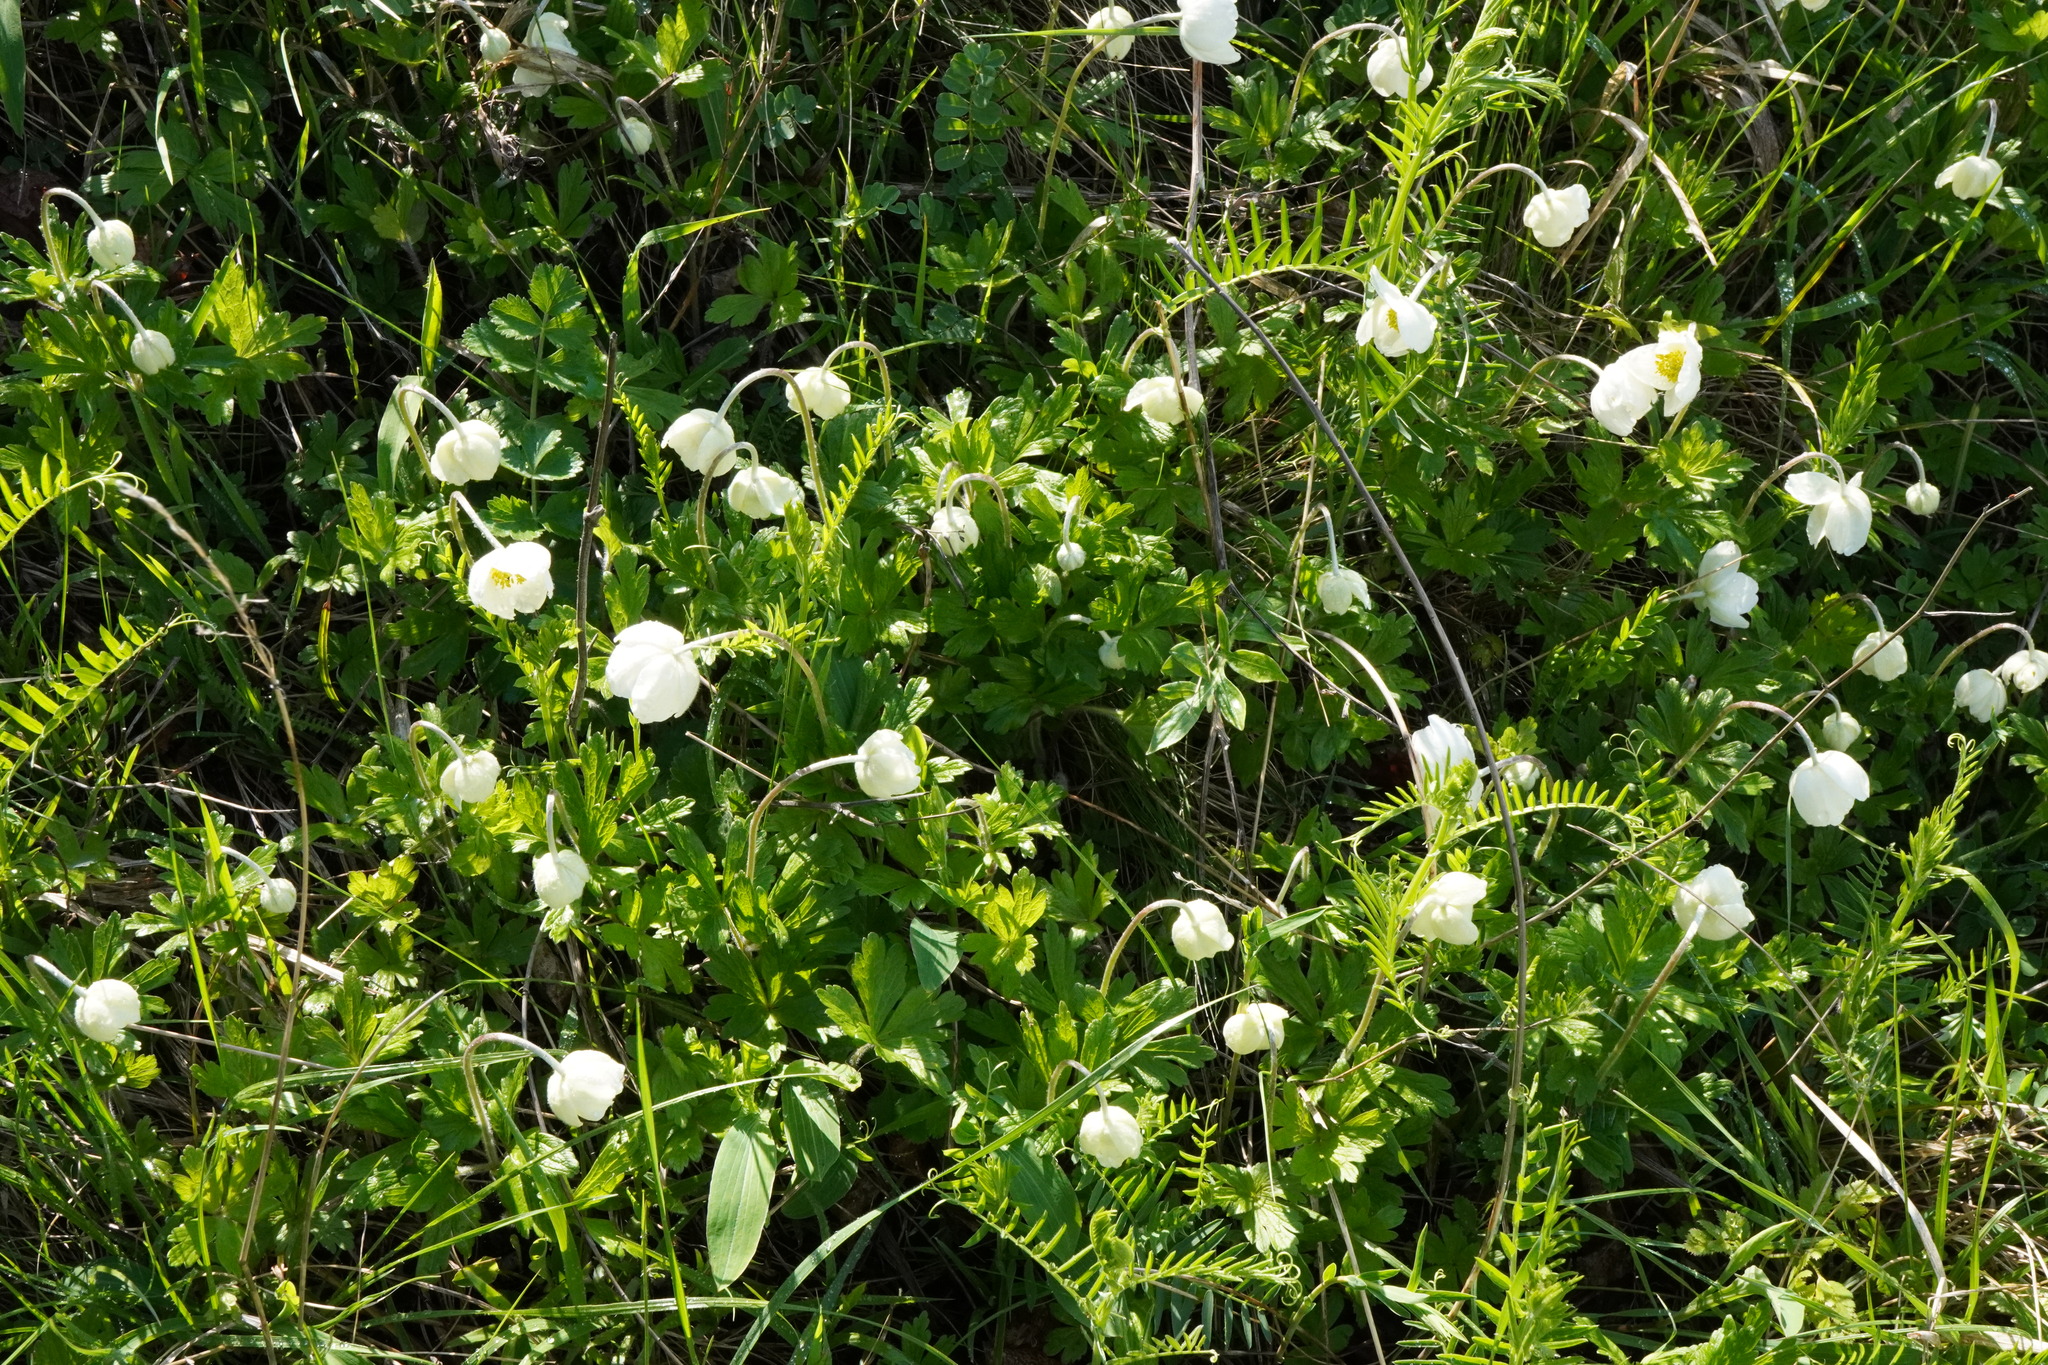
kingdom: Plantae
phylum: Tracheophyta
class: Magnoliopsida
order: Ranunculales
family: Ranunculaceae
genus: Anemone
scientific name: Anemone sylvestris
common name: Snowdrop anemone
